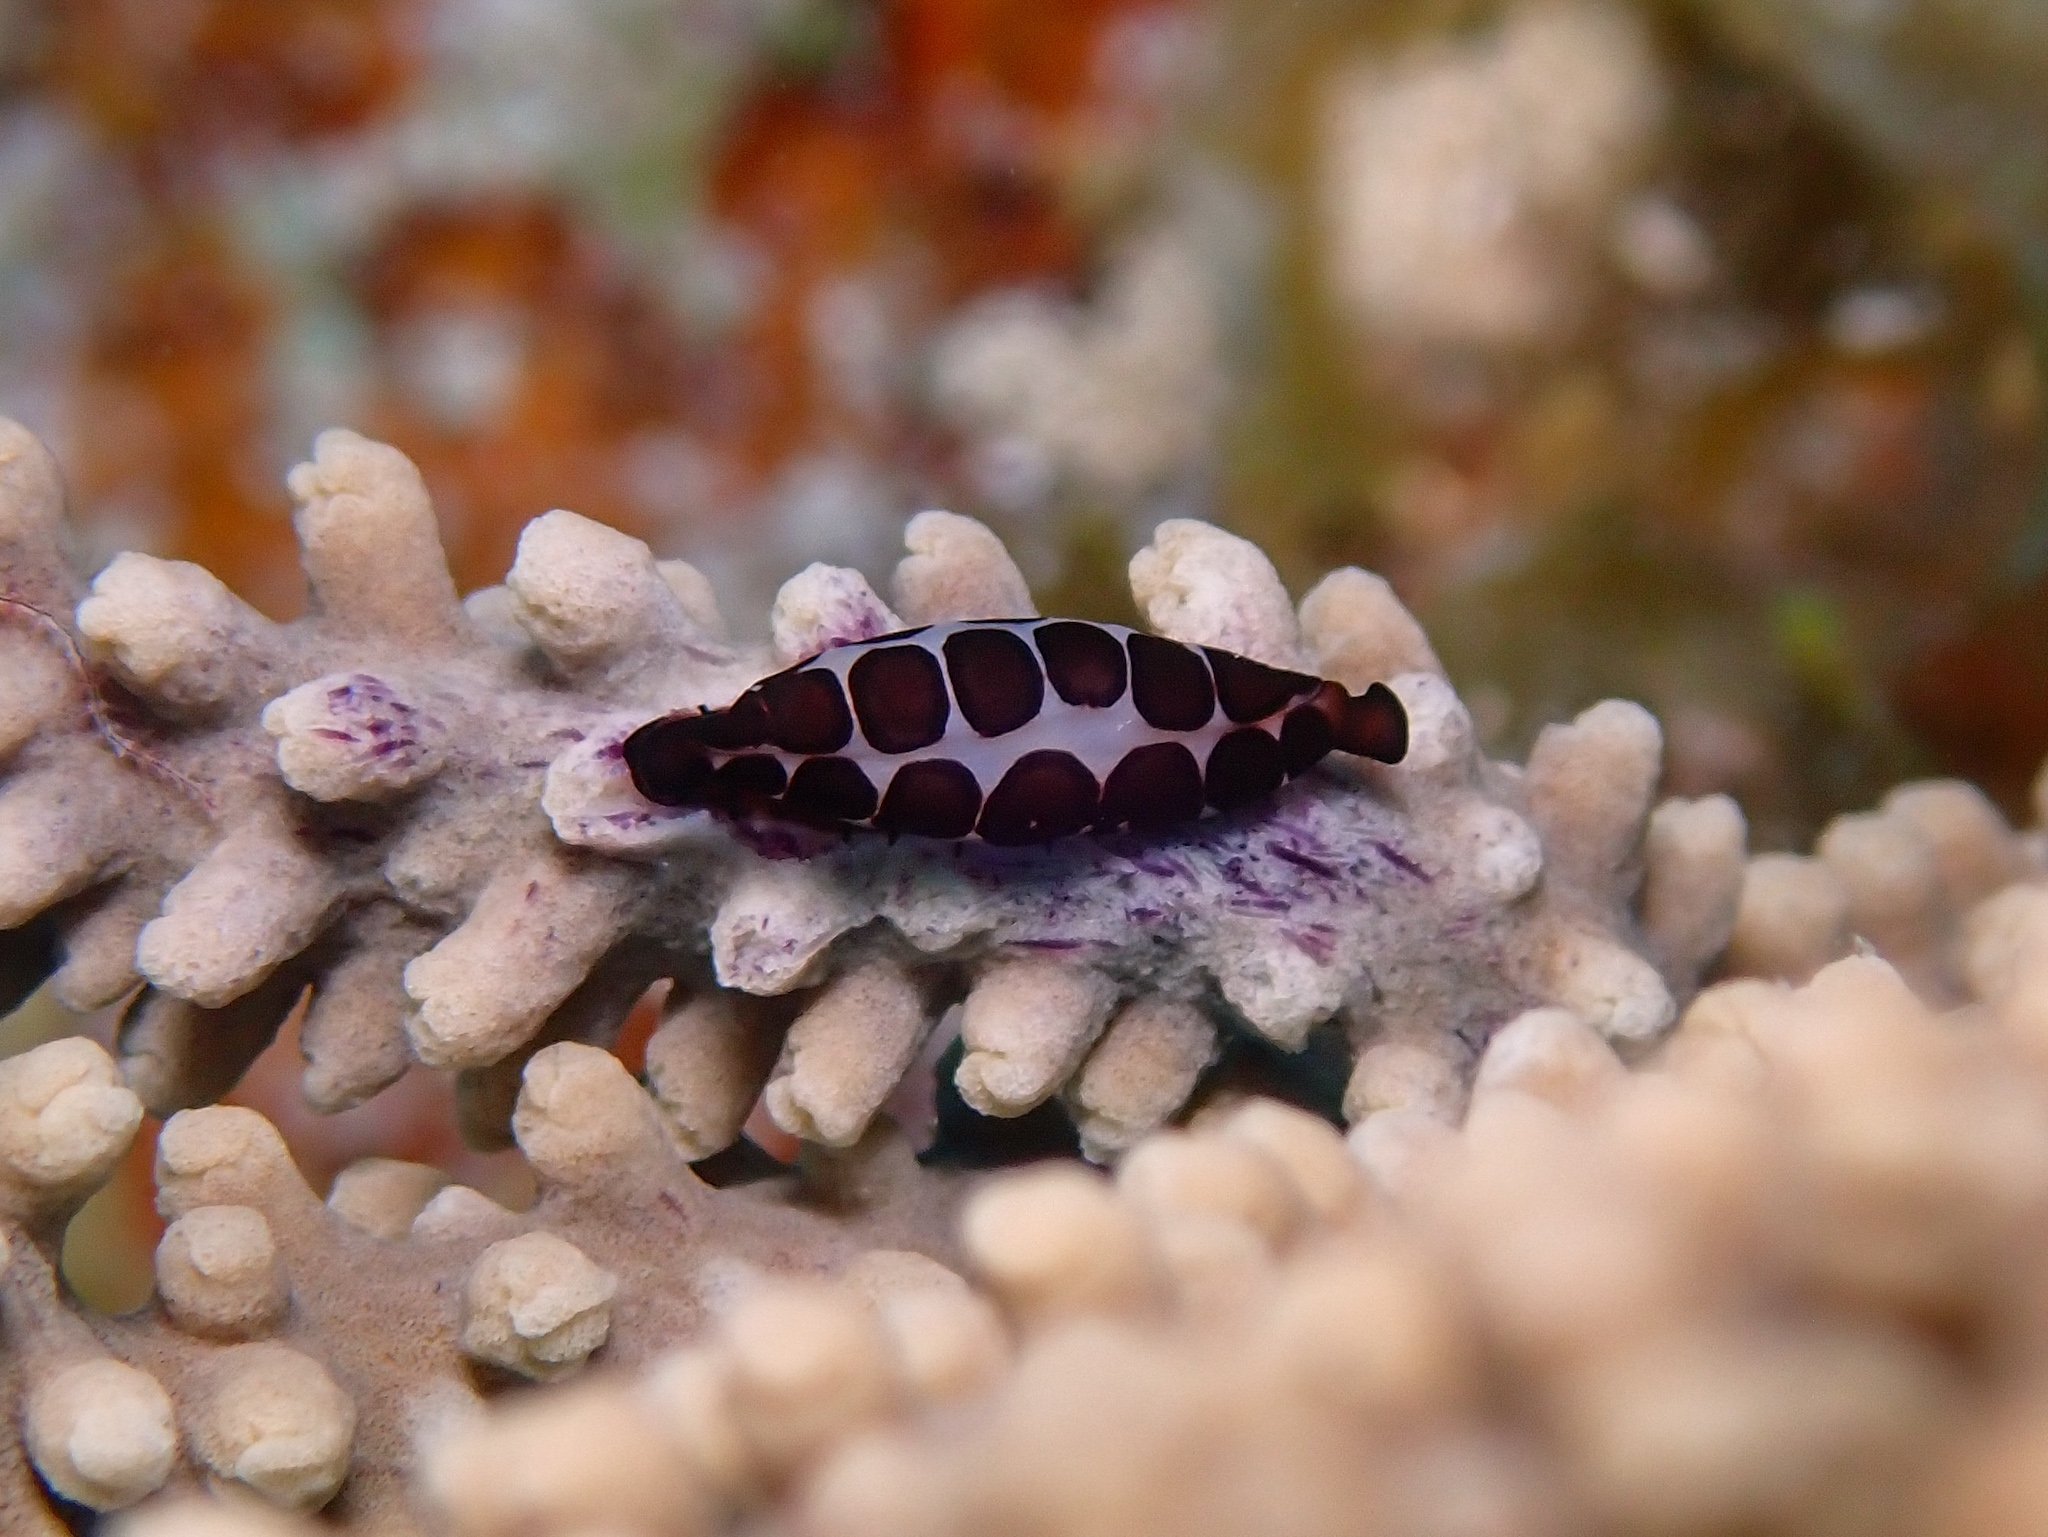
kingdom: Animalia
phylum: Mollusca
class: Gastropoda
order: Littorinimorpha
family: Ovulidae
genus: Cyphoma
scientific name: Cyphoma cassidyae
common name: Black morph cyphoma
